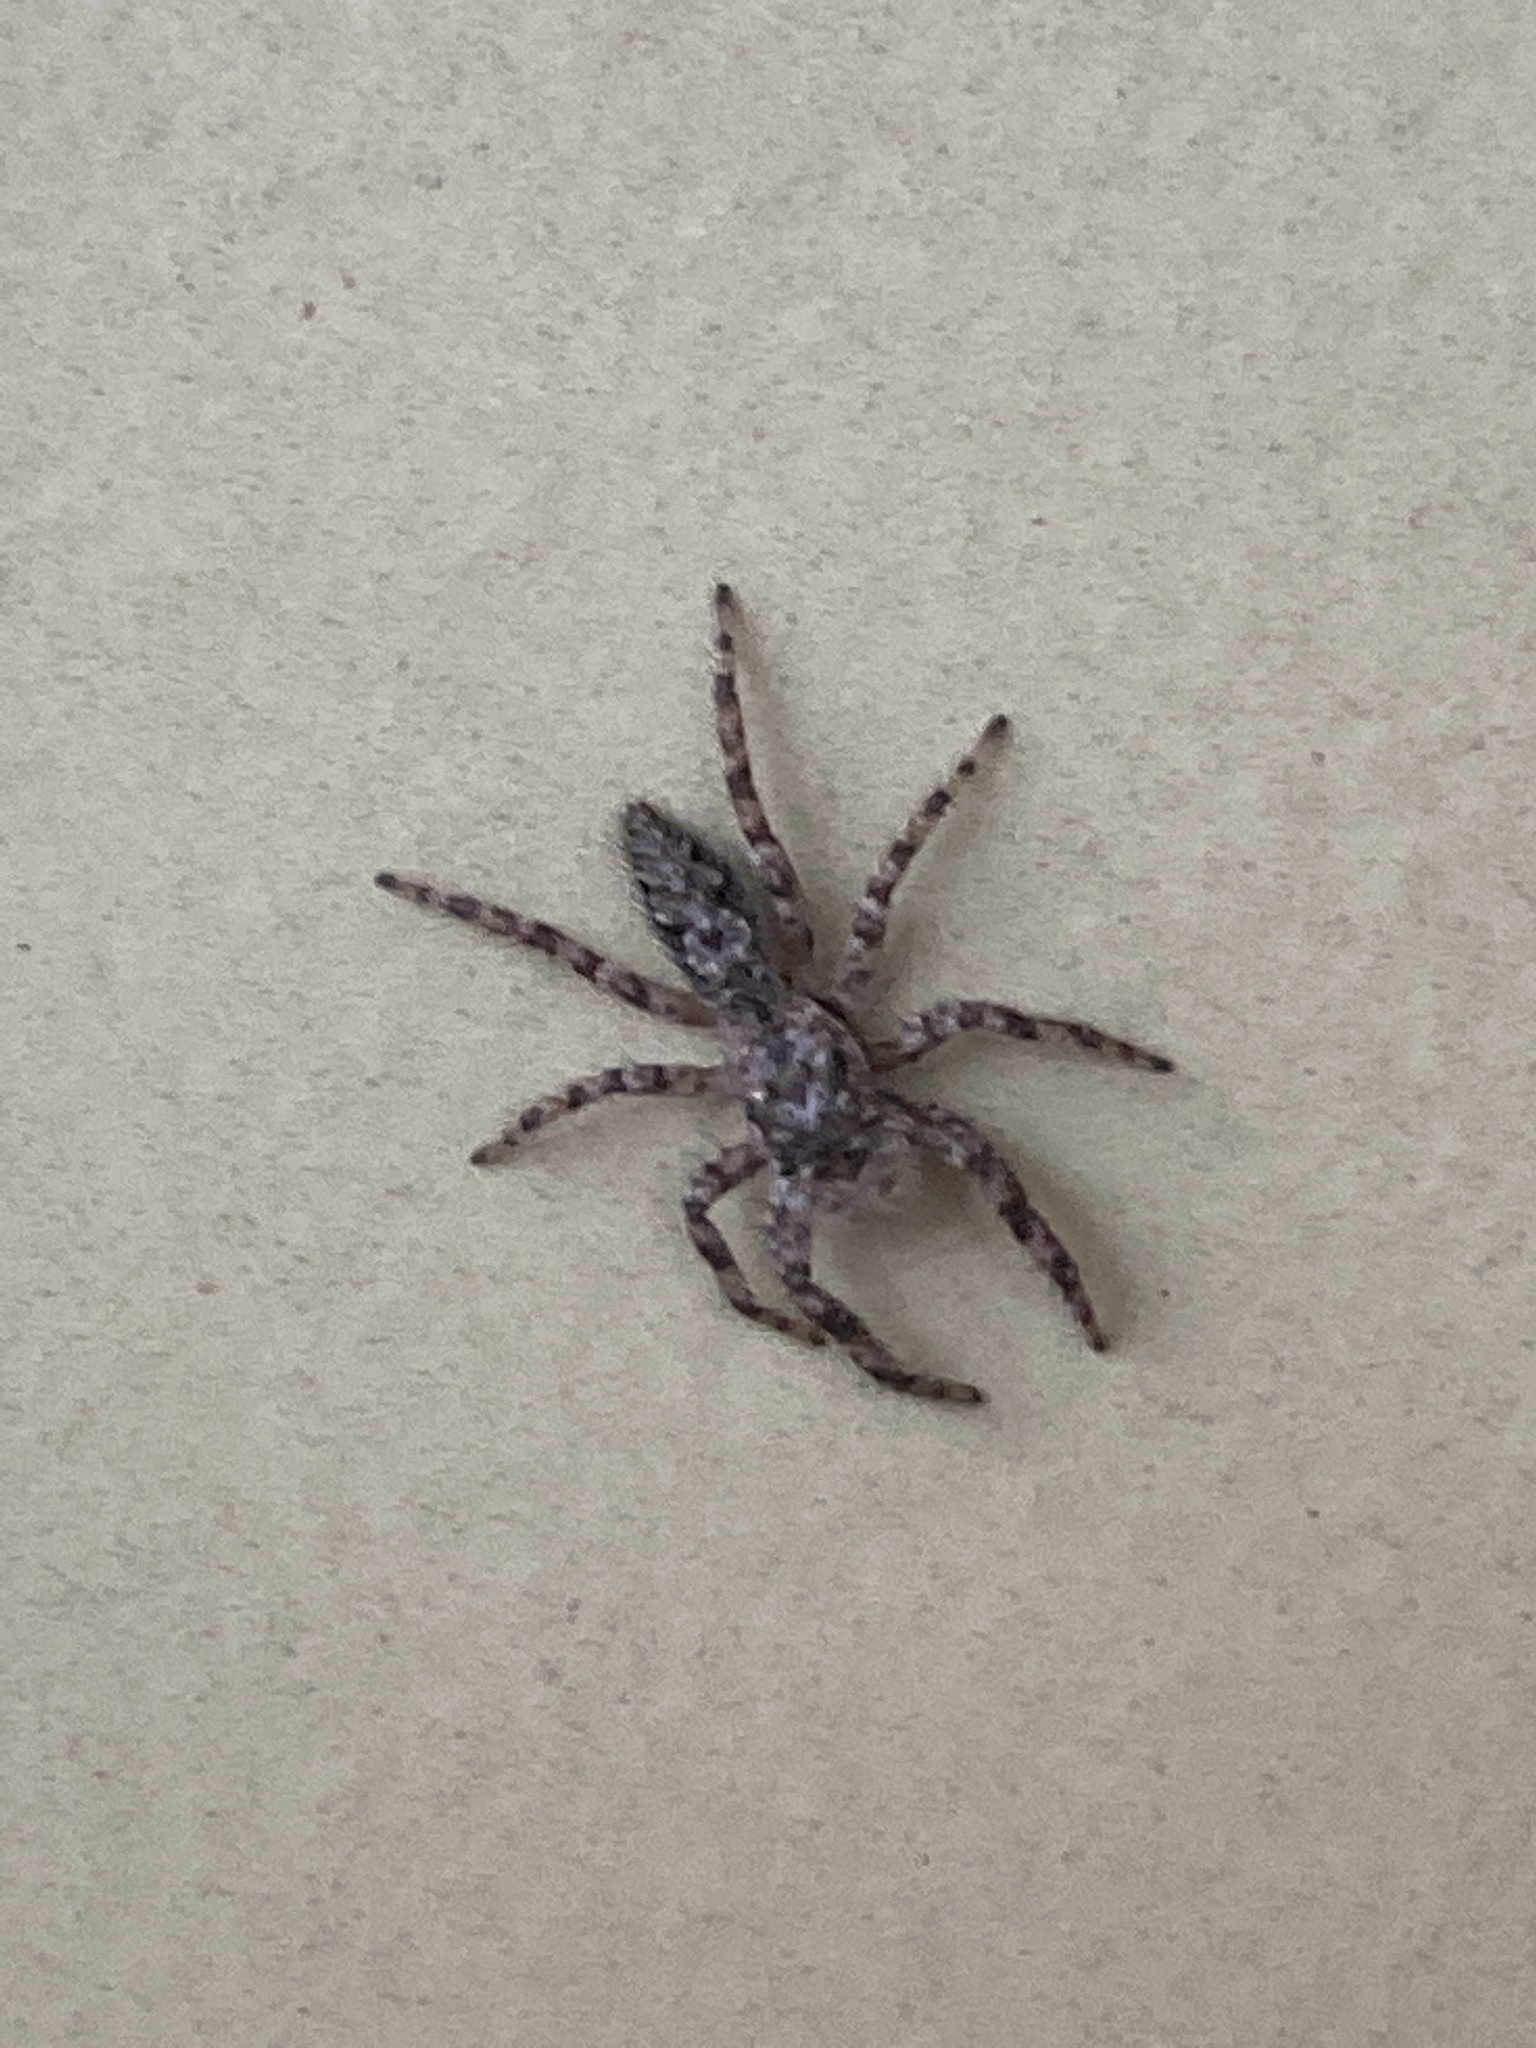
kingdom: Animalia
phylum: Arthropoda
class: Arachnida
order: Araneae
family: Salticidae
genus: Platycryptus
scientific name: Platycryptus undatus
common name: Tan jumping spider
